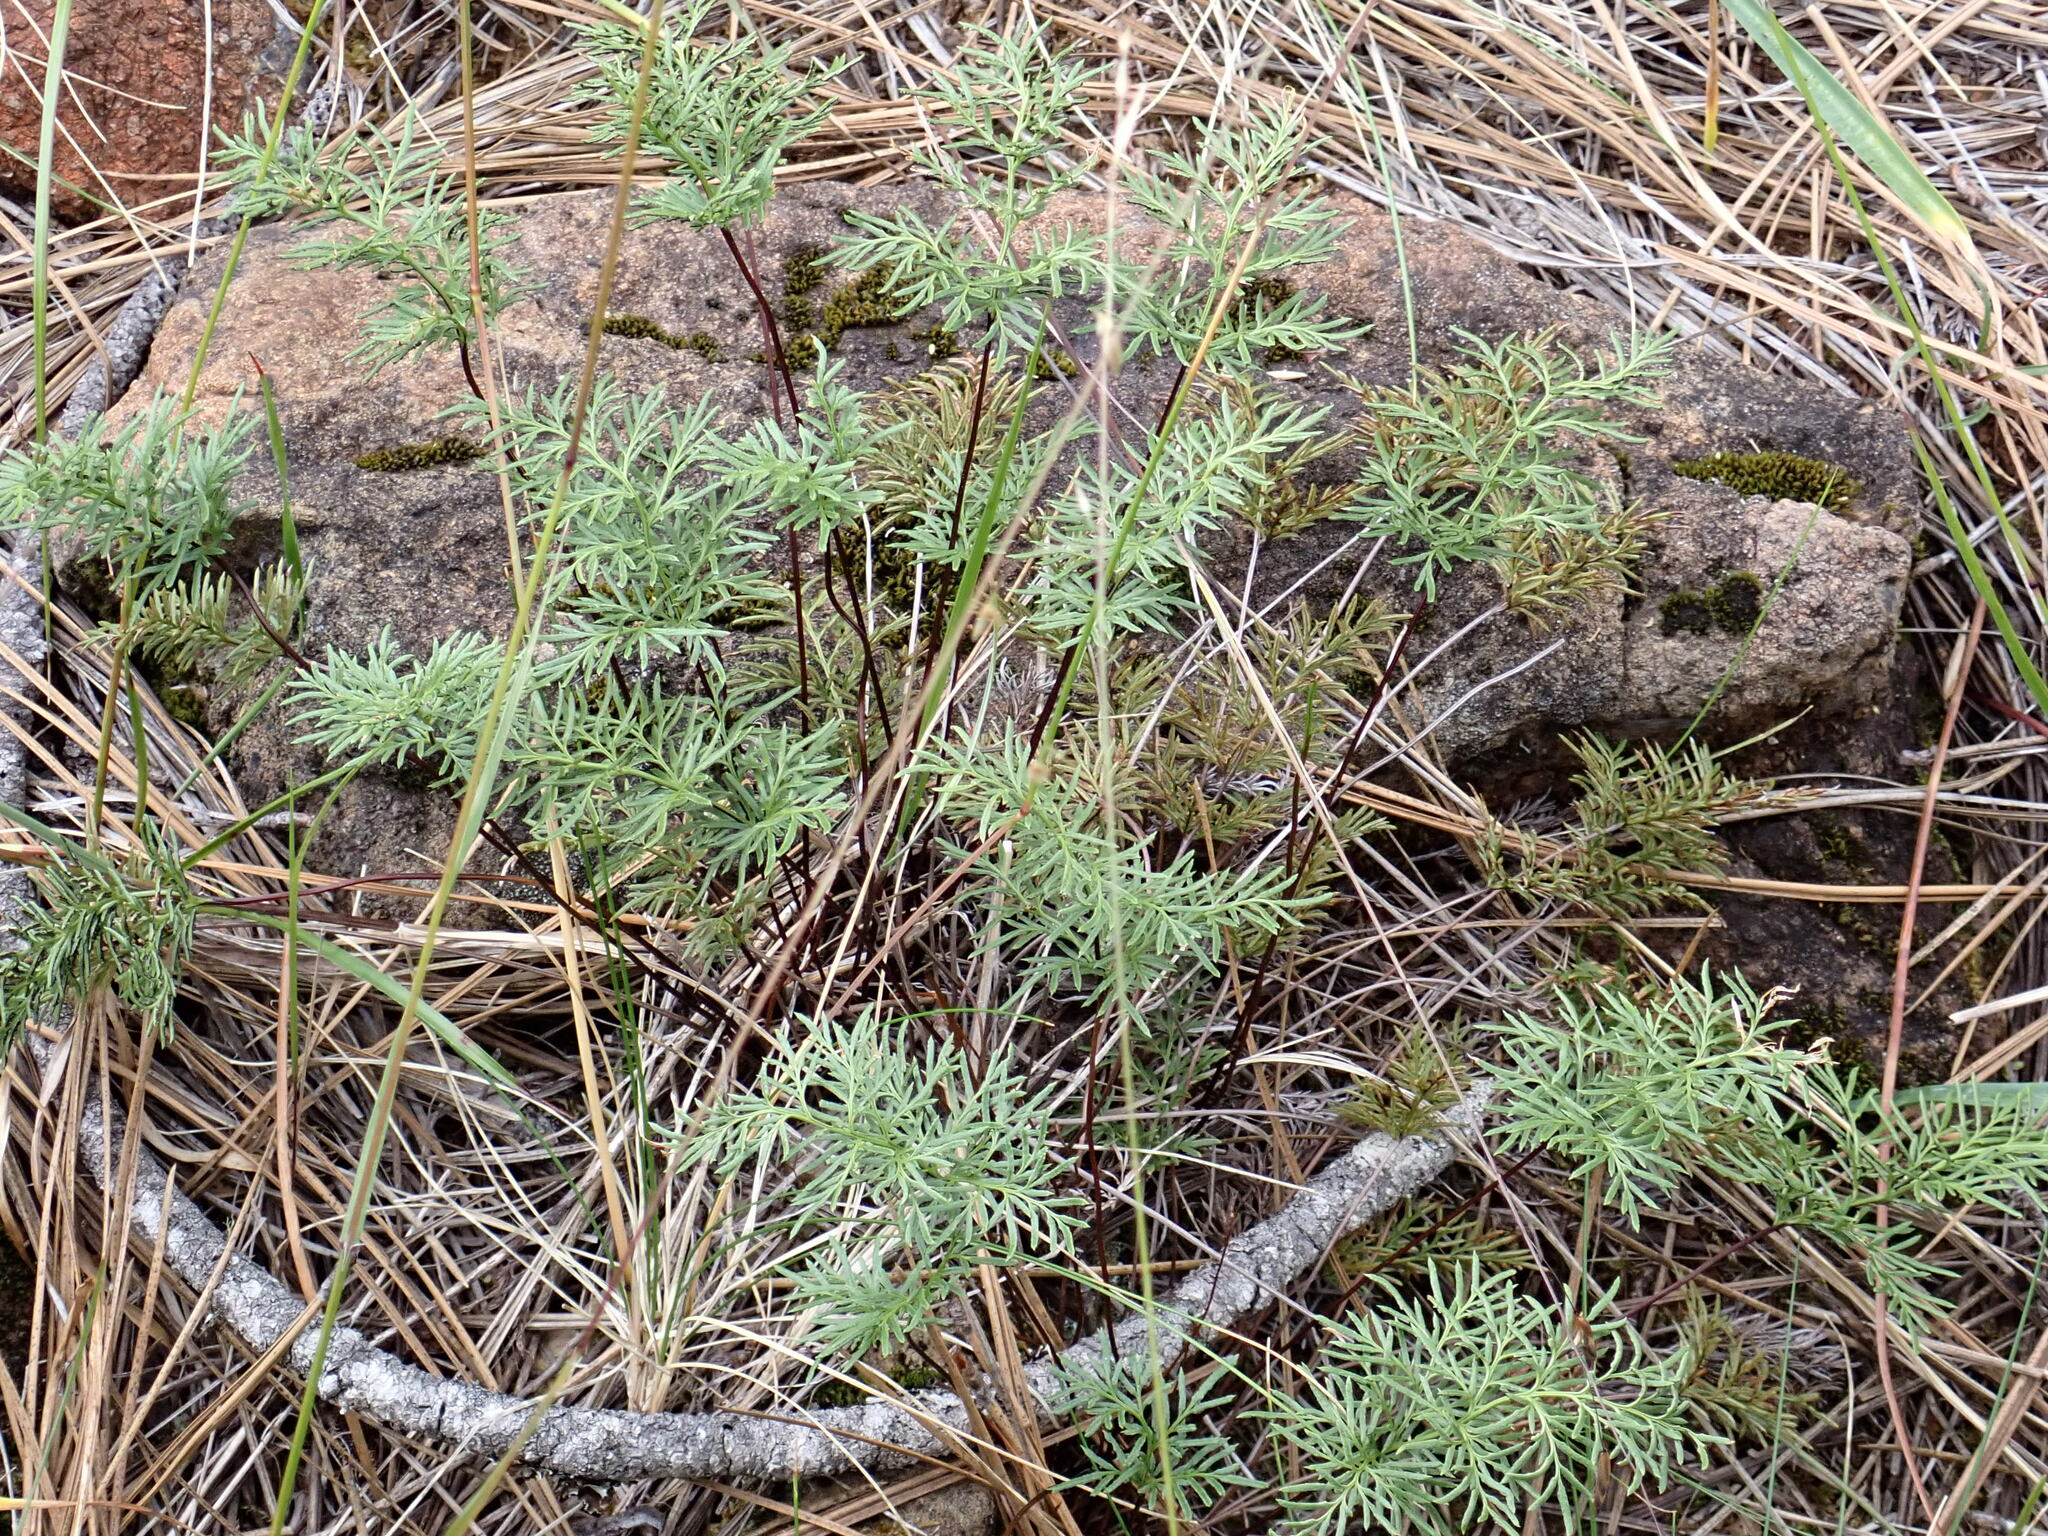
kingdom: Plantae
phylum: Tracheophyta
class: Polypodiopsida
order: Polypodiales
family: Pteridaceae
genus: Aspidotis
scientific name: Aspidotis densa
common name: Indian's dream
